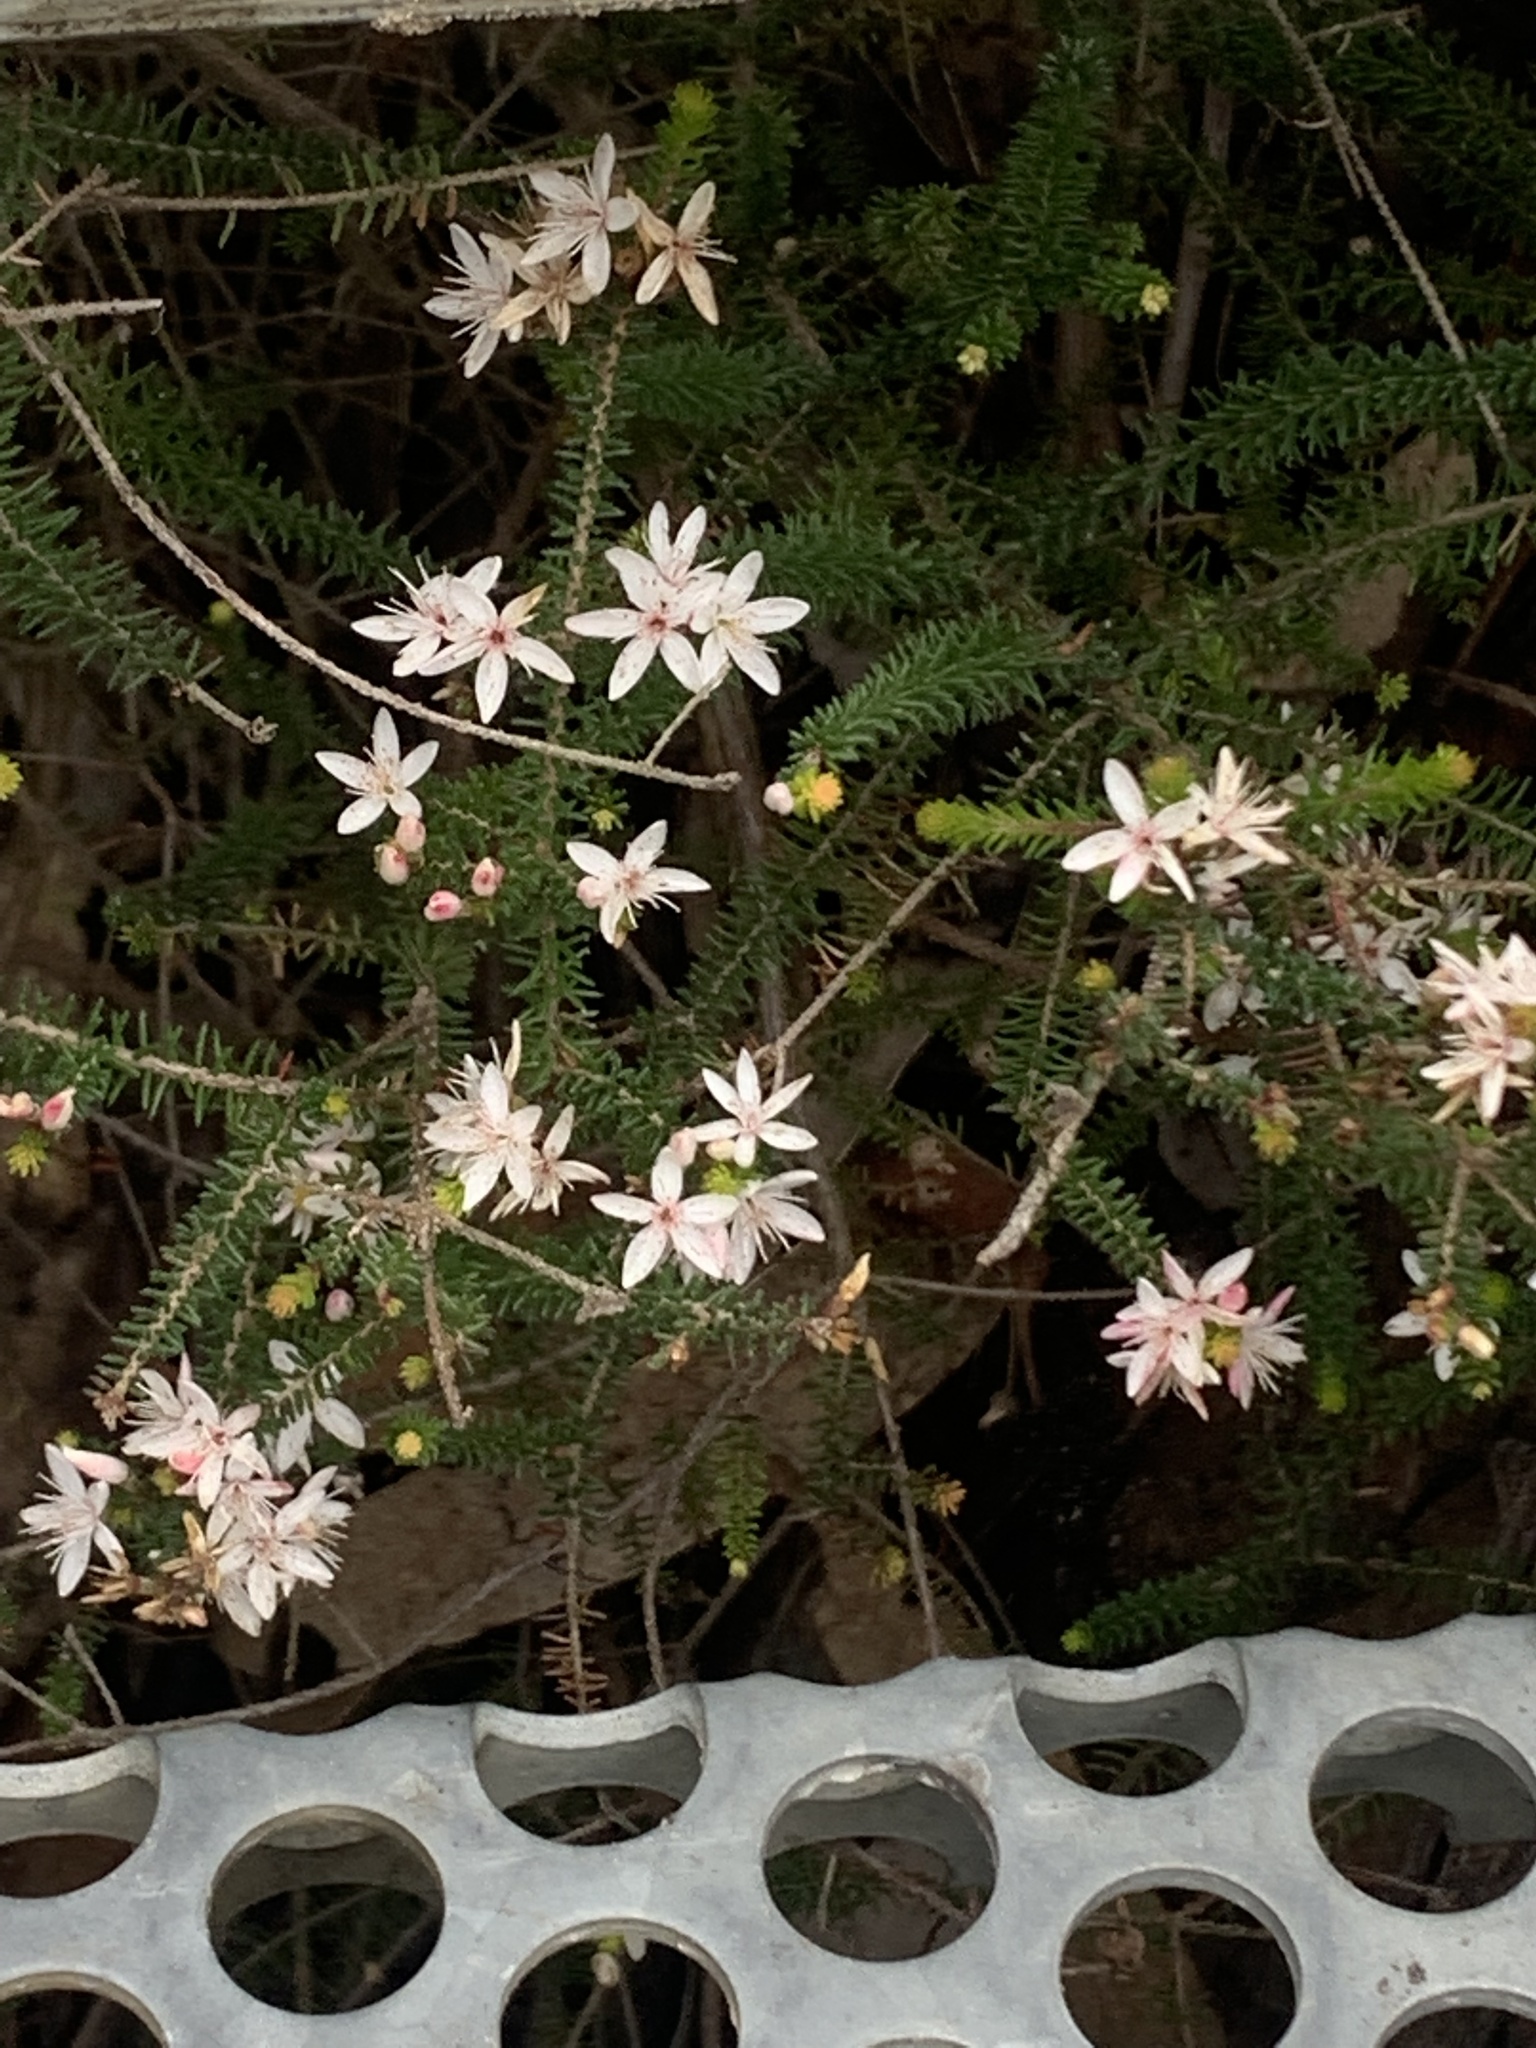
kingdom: Plantae
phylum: Tracheophyta
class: Magnoliopsida
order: Myrtales
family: Myrtaceae
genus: Calytrix
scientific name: Calytrix alpestris
